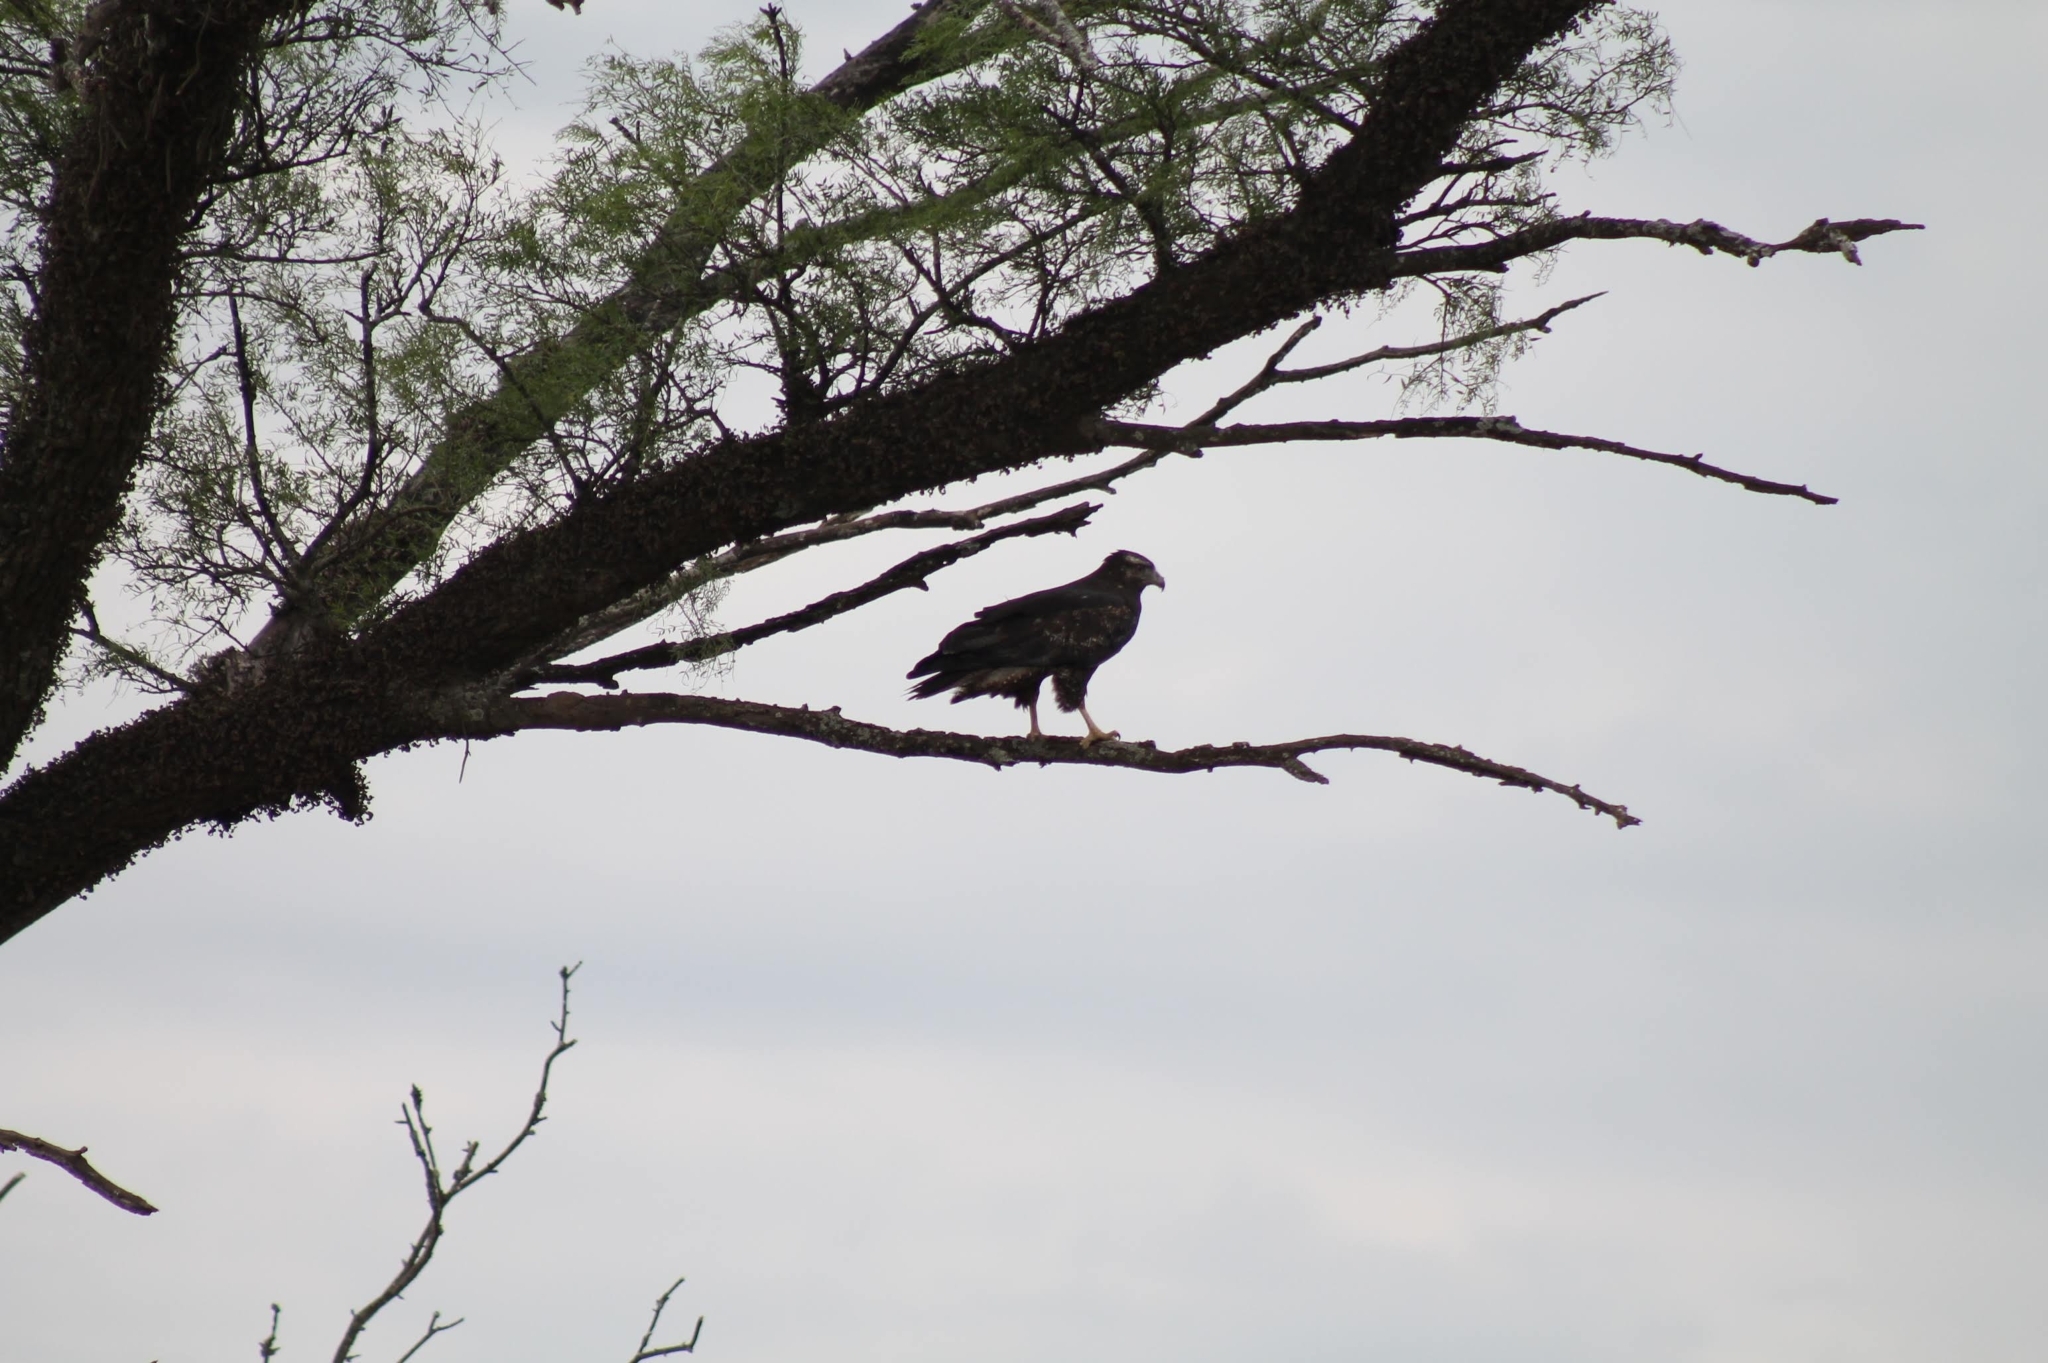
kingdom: Animalia
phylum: Chordata
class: Aves
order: Accipitriformes
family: Accipitridae
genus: Geranoaetus
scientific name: Geranoaetus melanoleucus
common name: Black-chested buzzard-eagle
